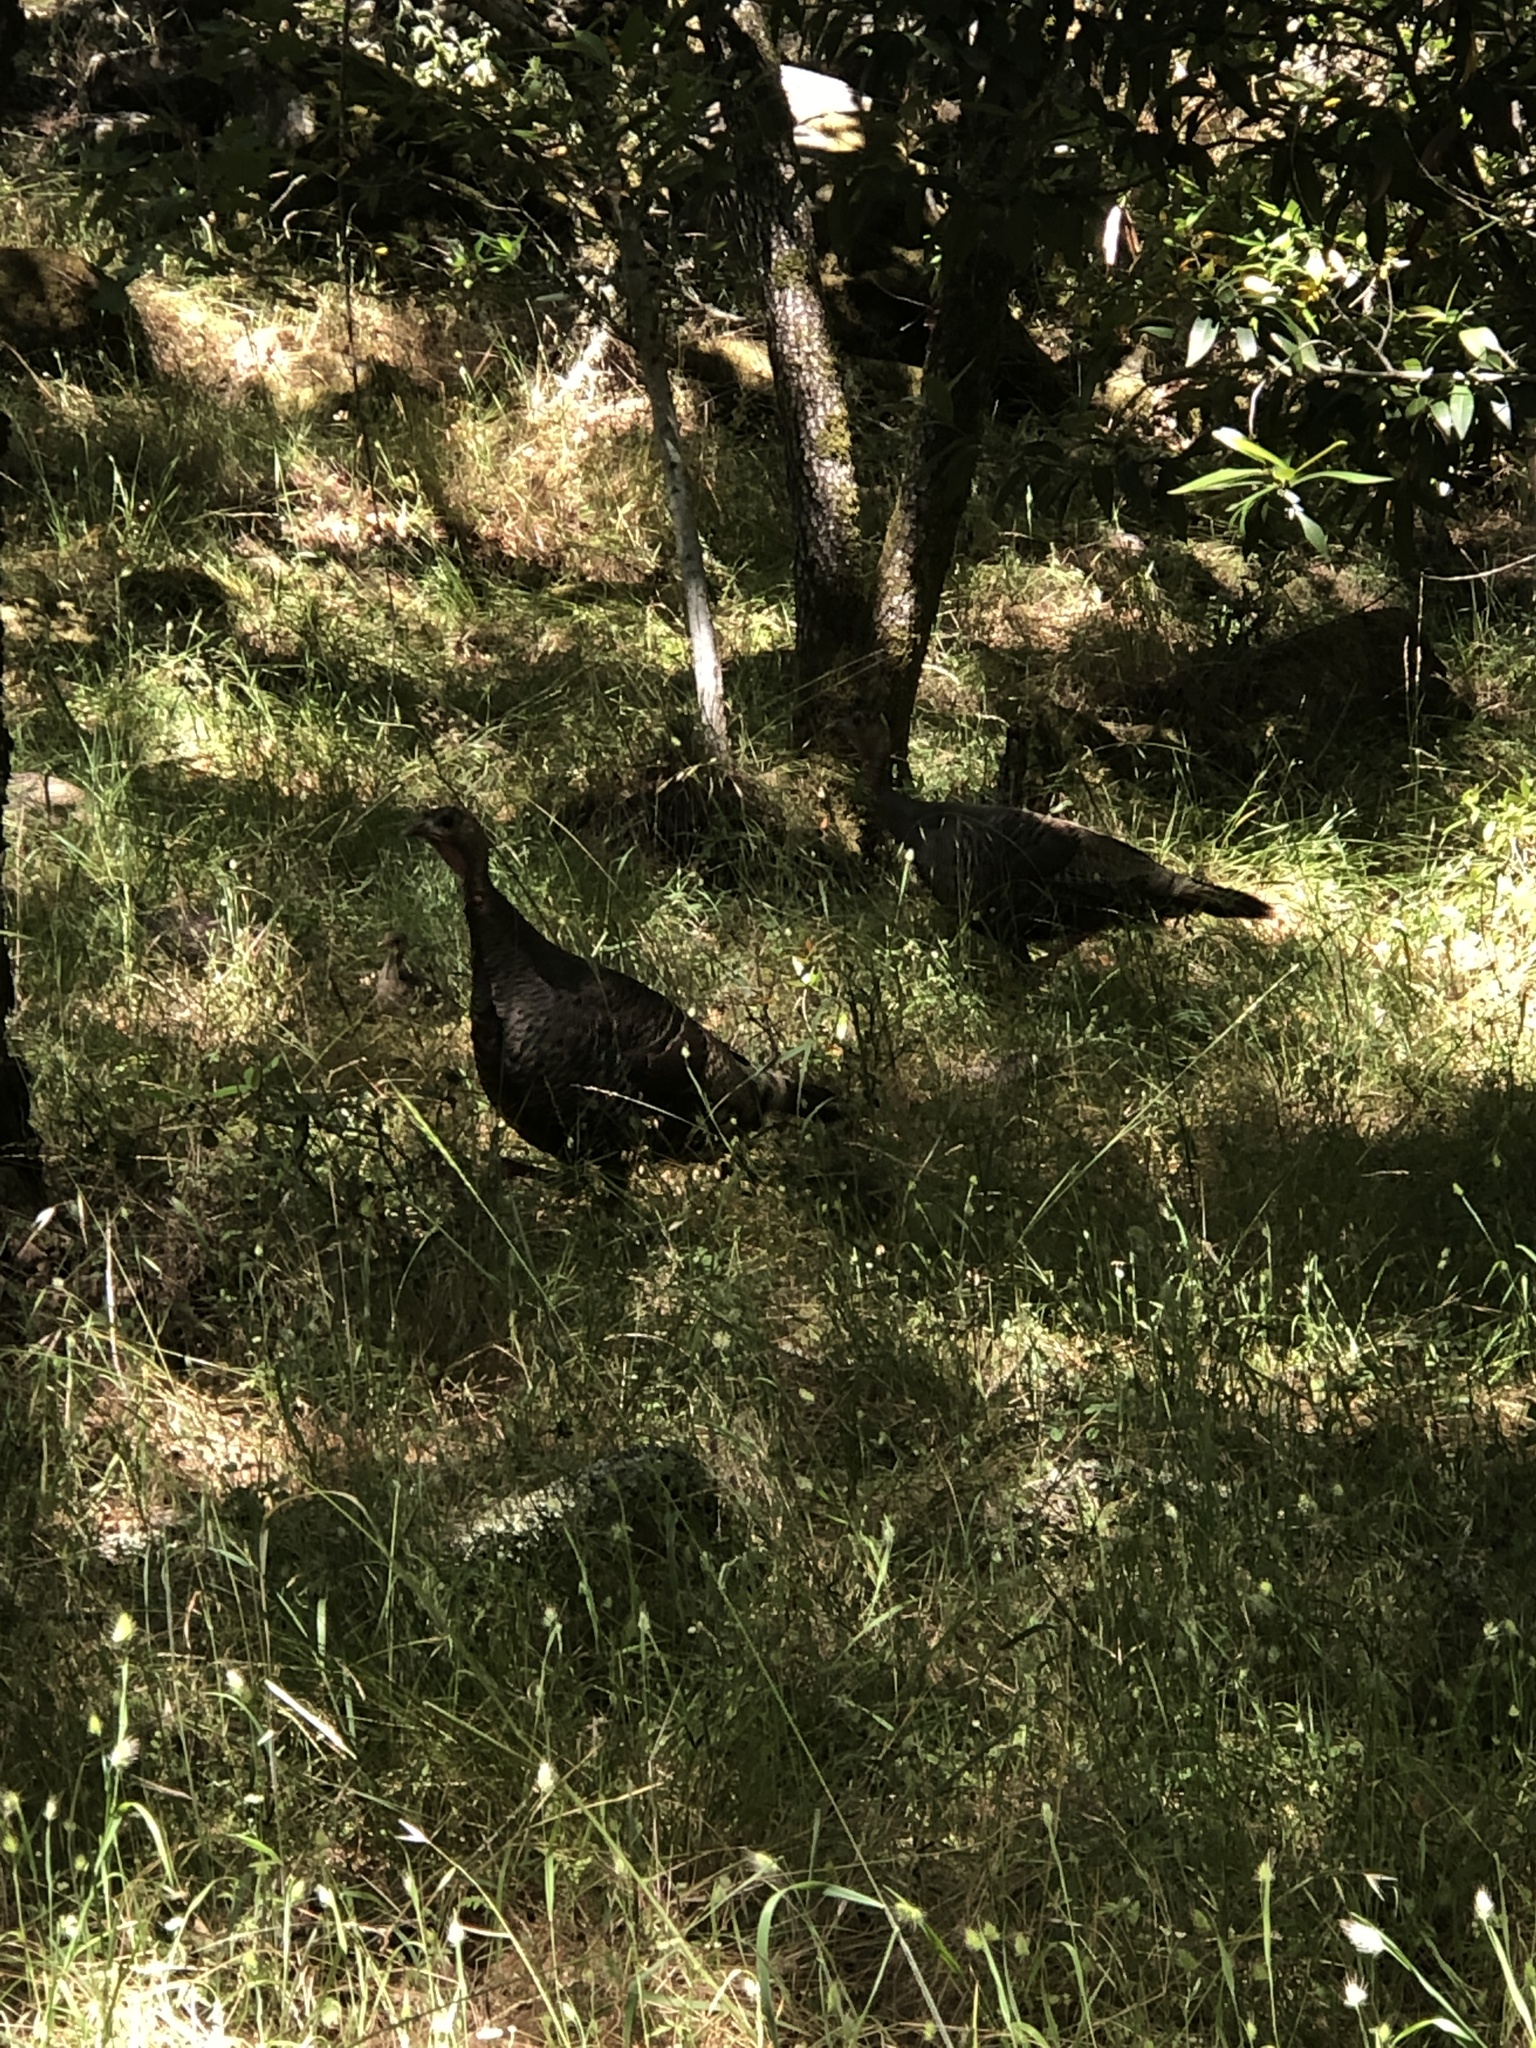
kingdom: Animalia
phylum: Chordata
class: Aves
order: Galliformes
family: Phasianidae
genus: Meleagris
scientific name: Meleagris gallopavo
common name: Wild turkey
